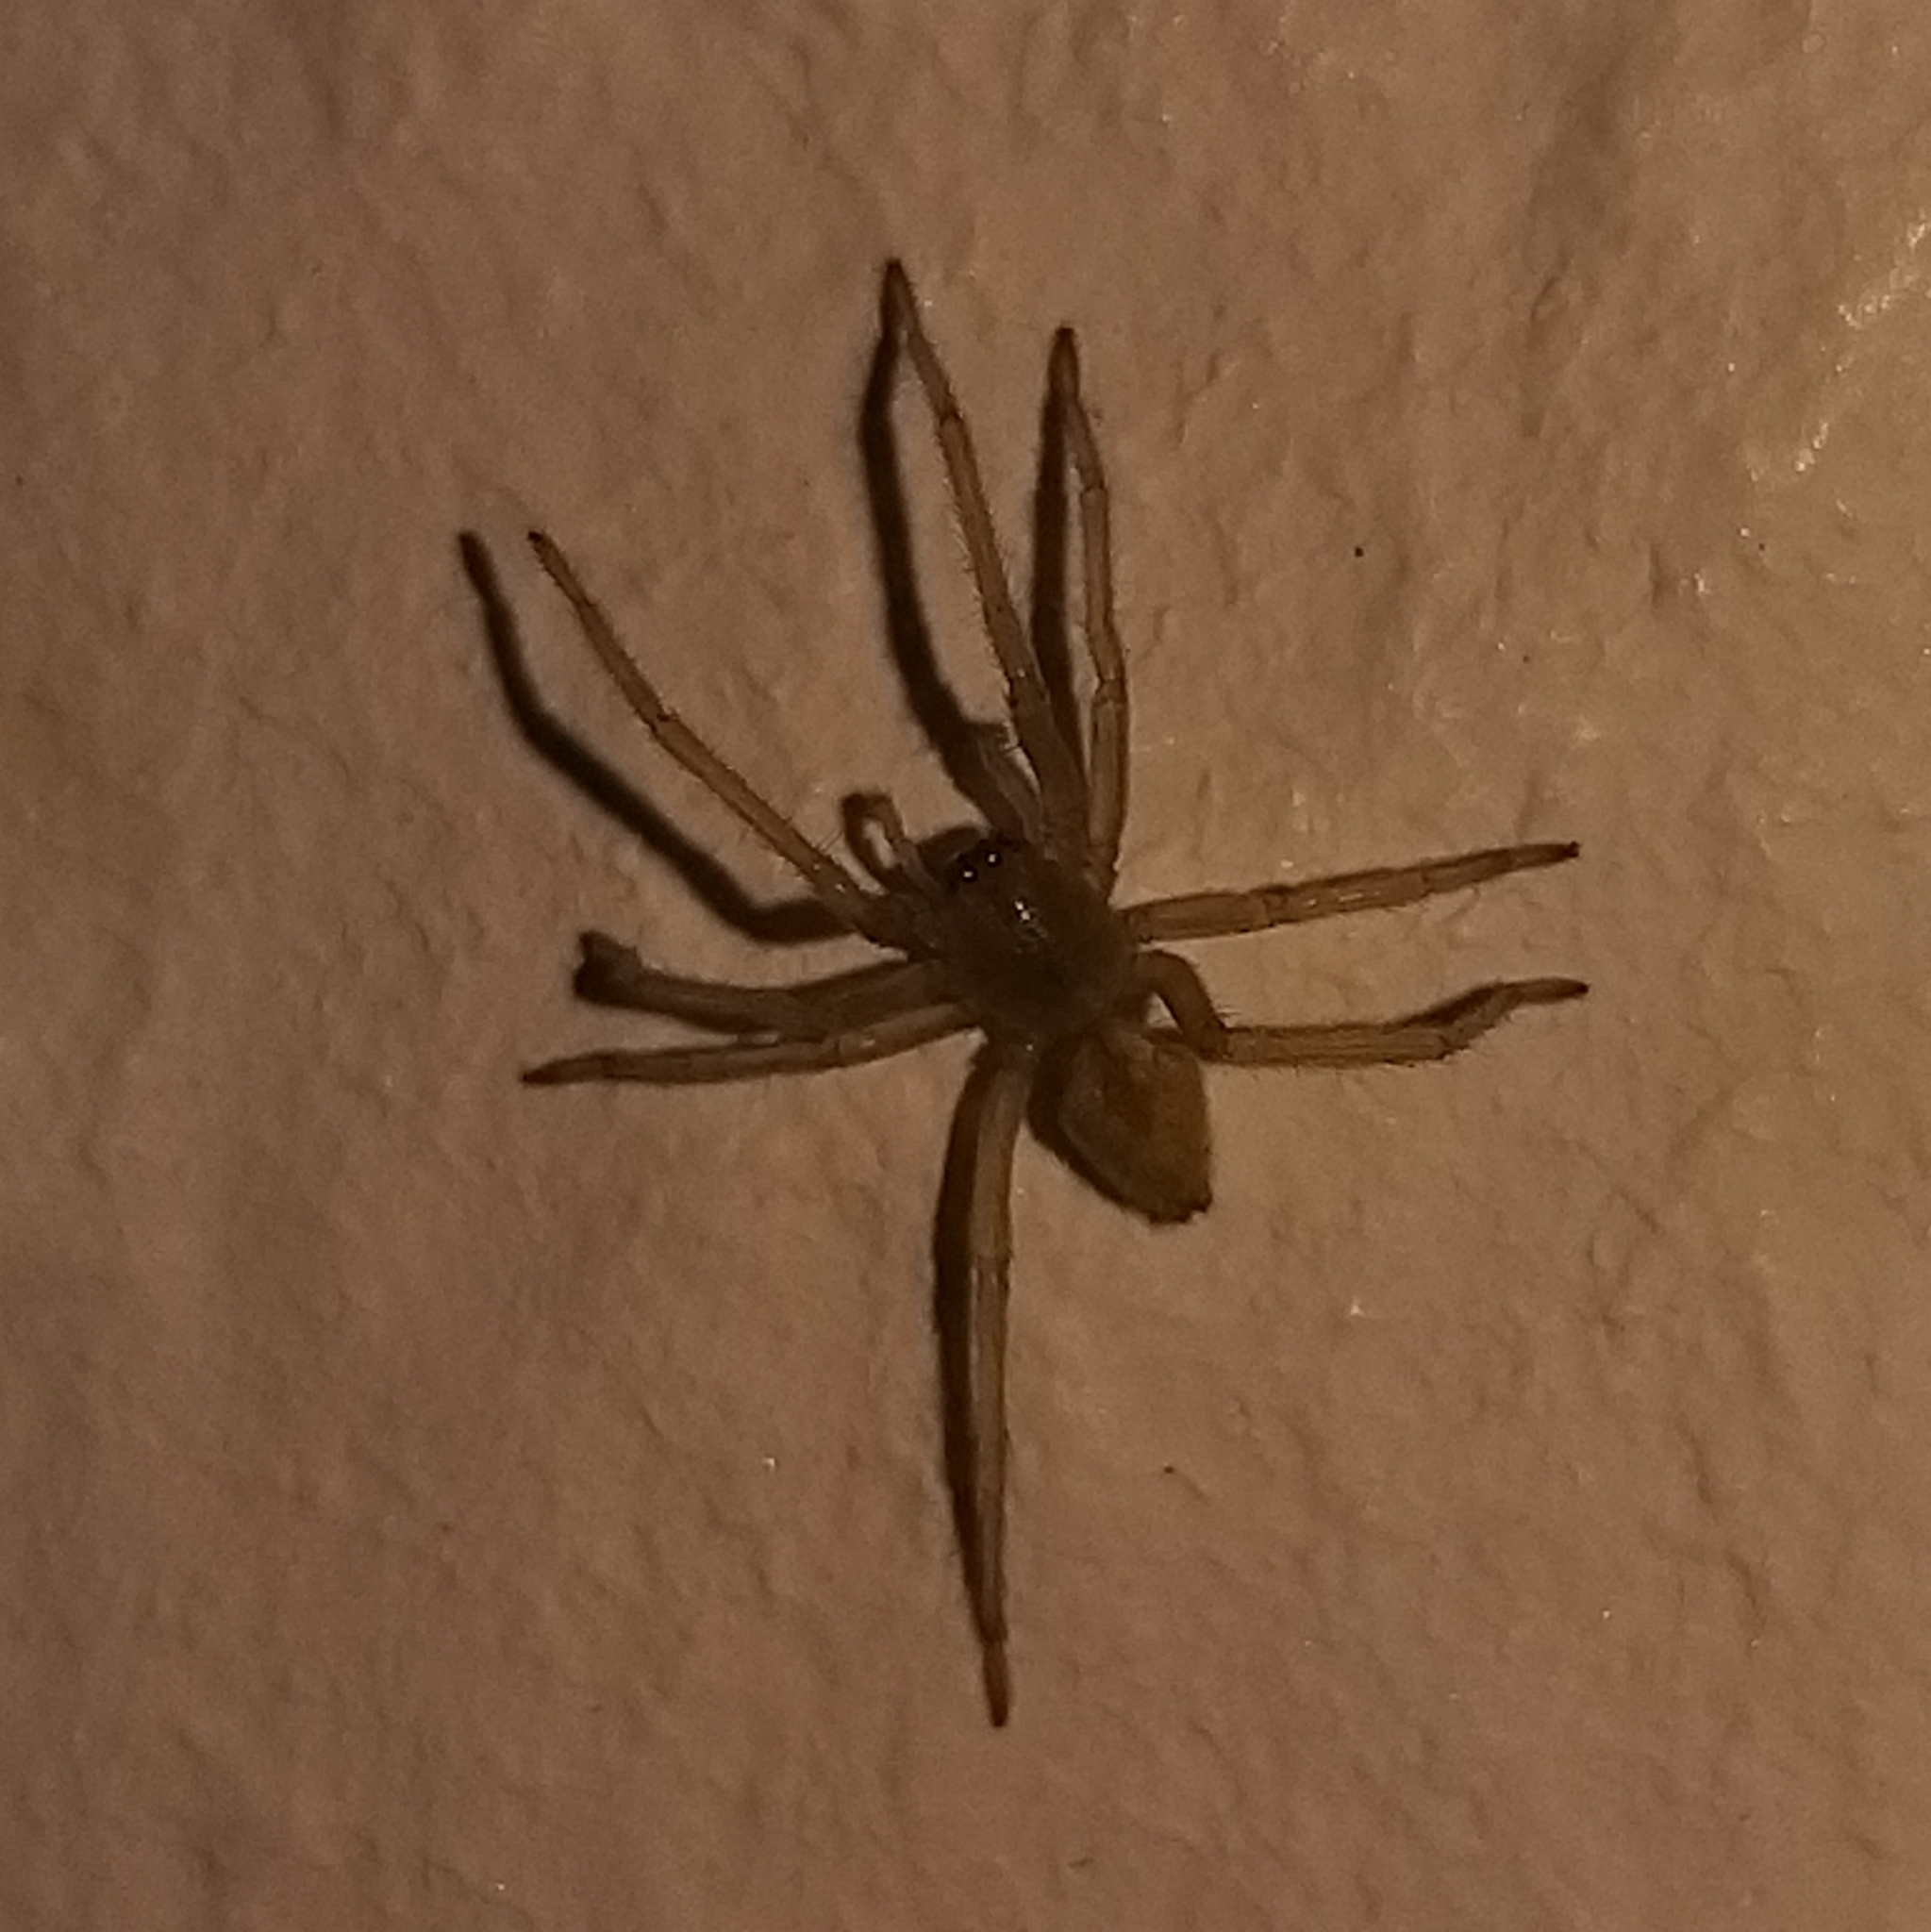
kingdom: Animalia
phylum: Arthropoda
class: Arachnida
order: Araneae
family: Cheiracanthiidae
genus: Cheiracanthium
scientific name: Cheiracanthium mildei
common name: Northern yellow sac spider
